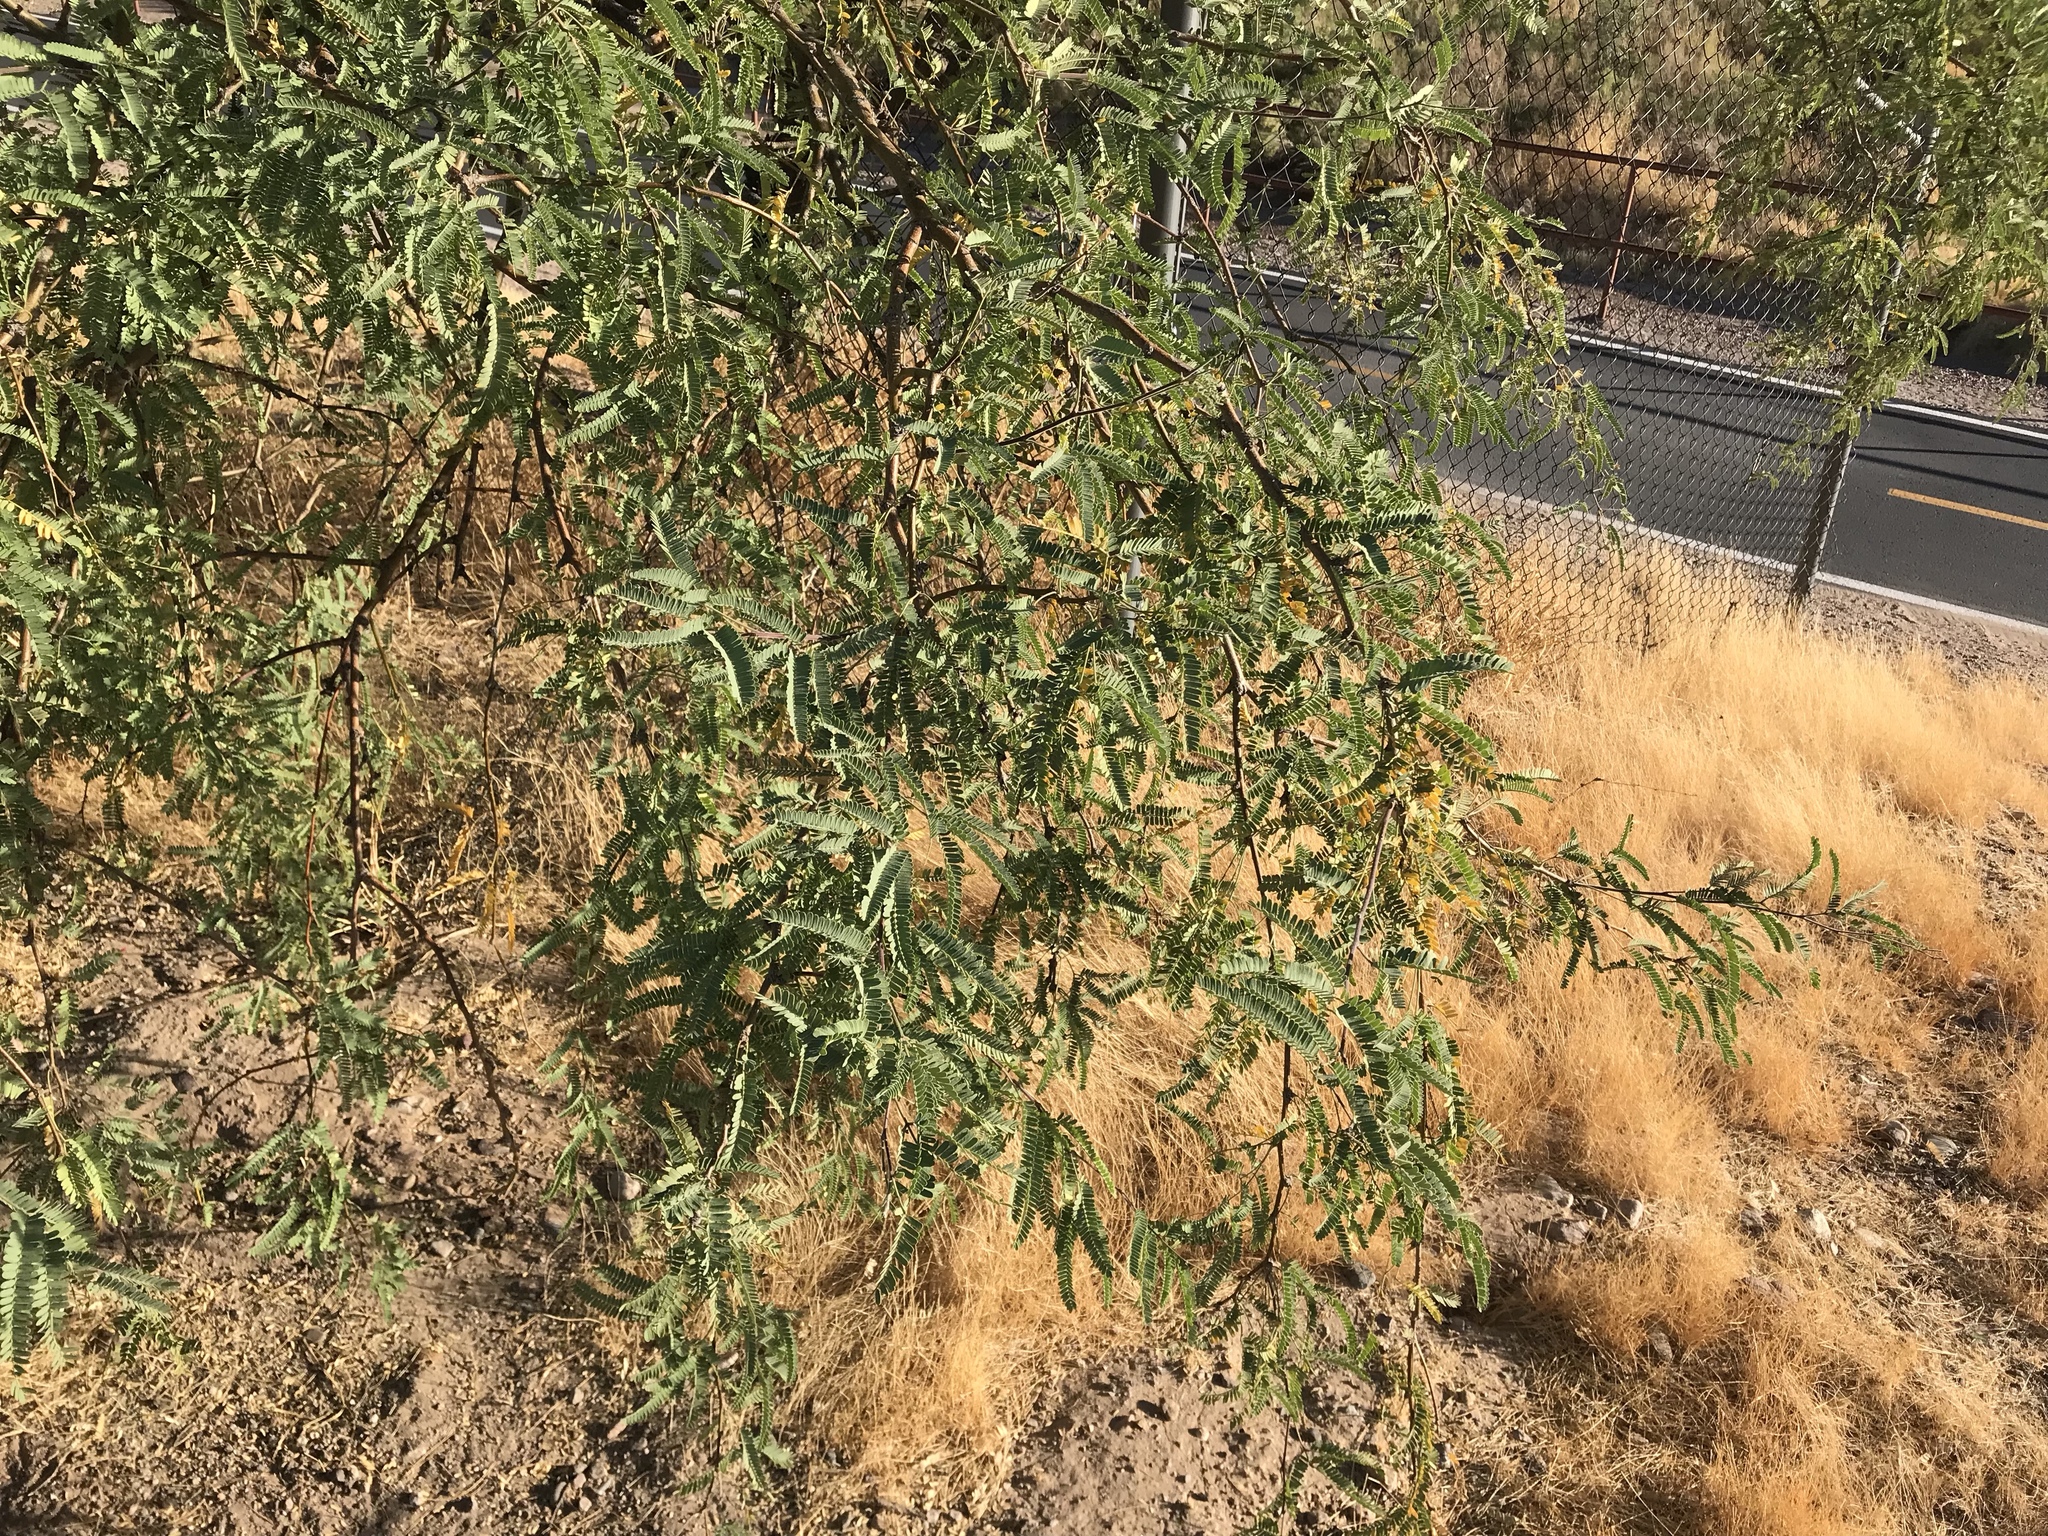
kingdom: Plantae
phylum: Tracheophyta
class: Magnoliopsida
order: Fabales
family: Fabaceae
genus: Prosopis
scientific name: Prosopis velutina
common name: Velvet mesquite
